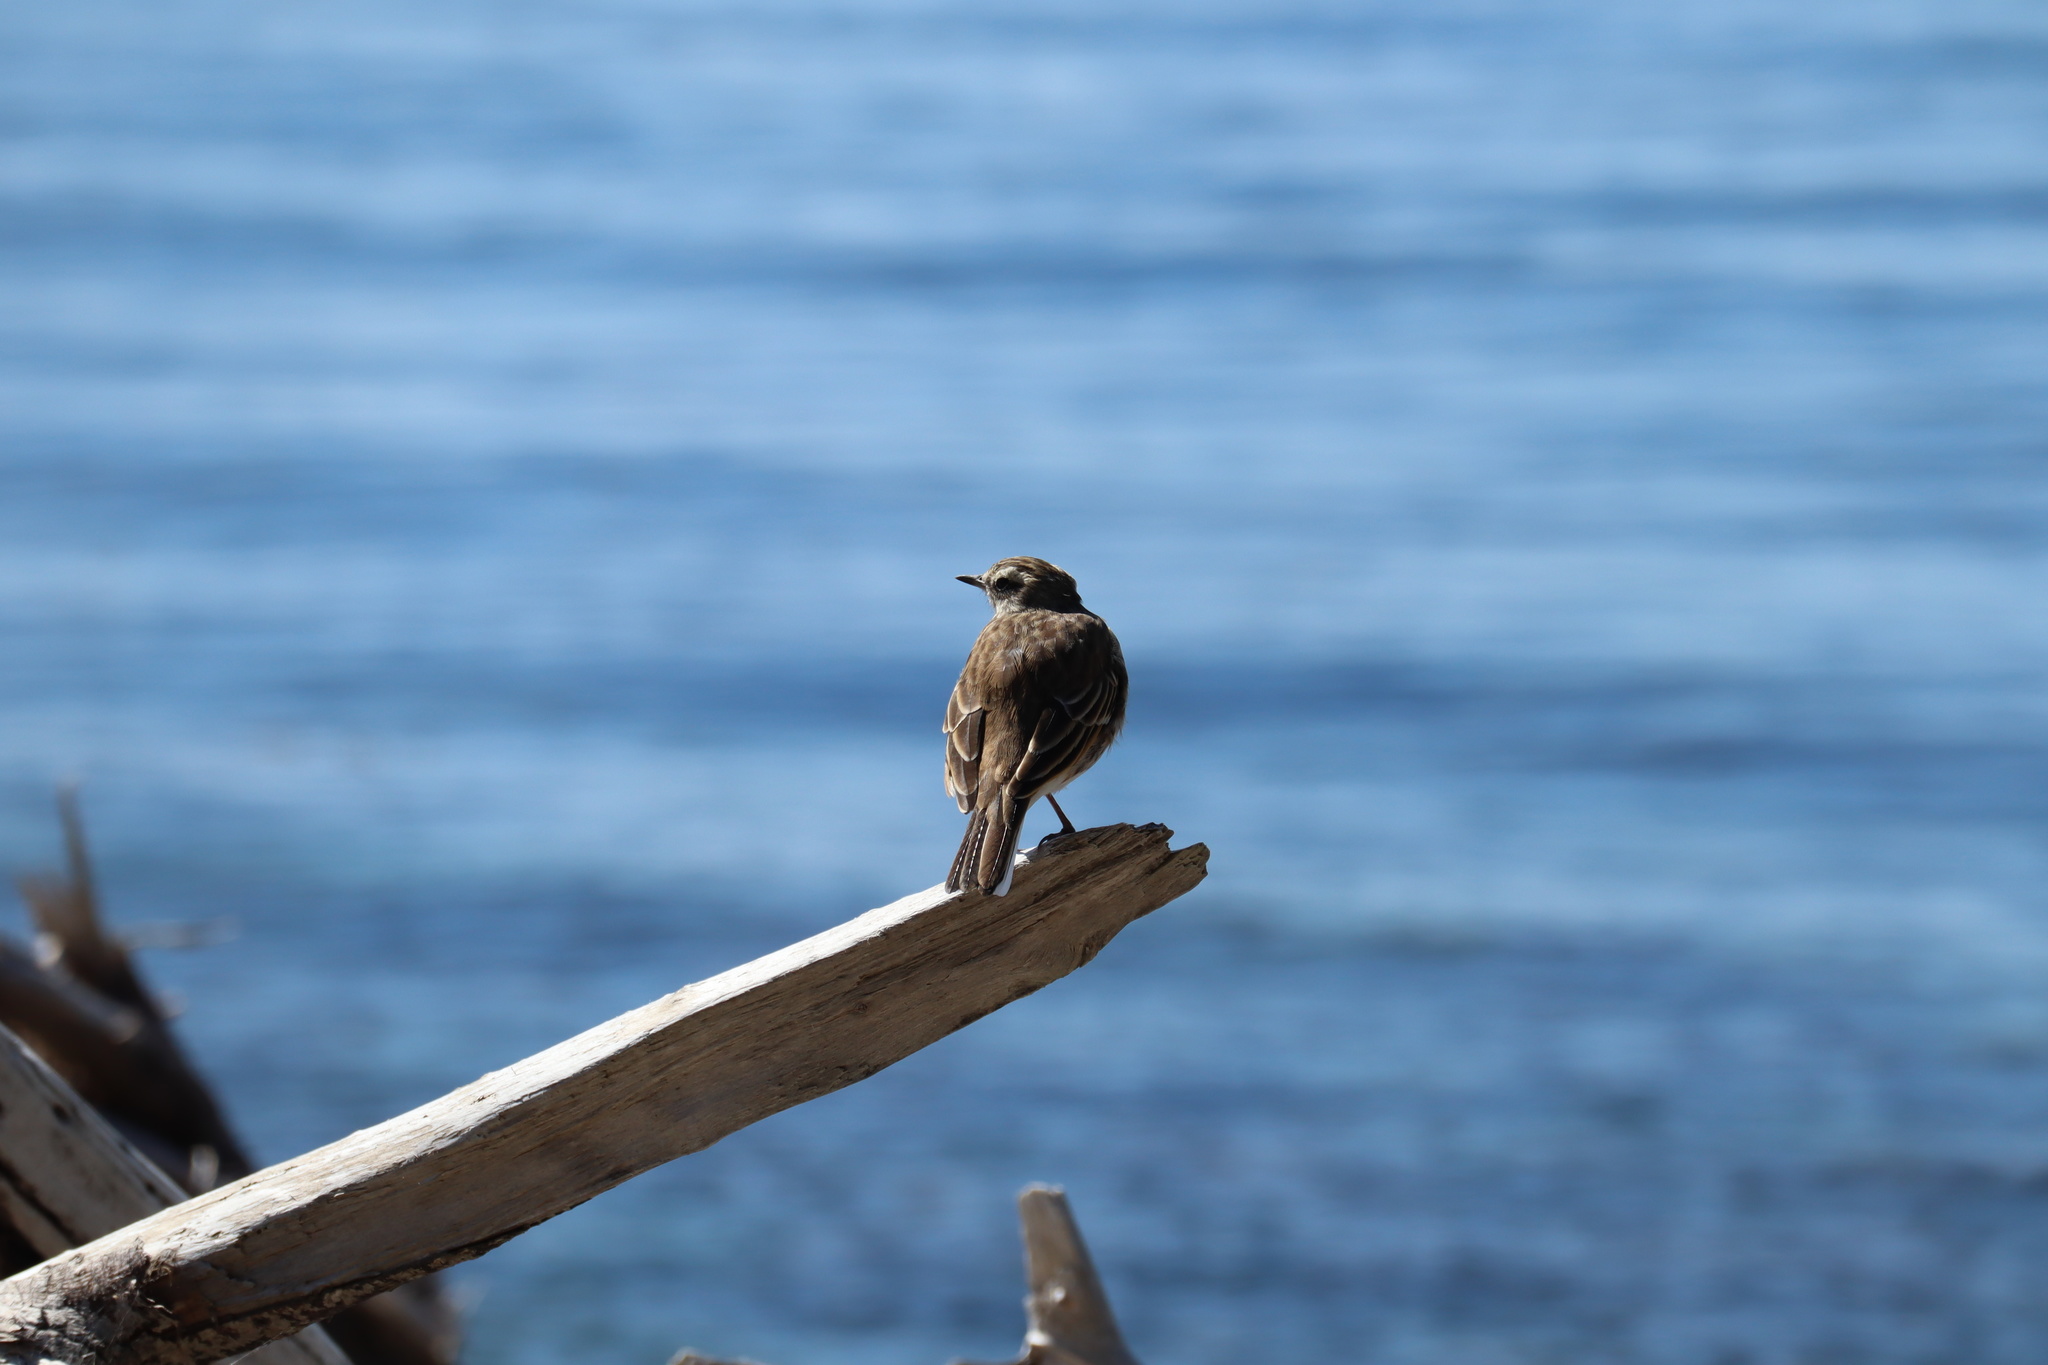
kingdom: Animalia
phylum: Chordata
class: Aves
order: Passeriformes
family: Motacillidae
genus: Anthus
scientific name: Anthus novaeseelandiae
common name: New zealand pipit
